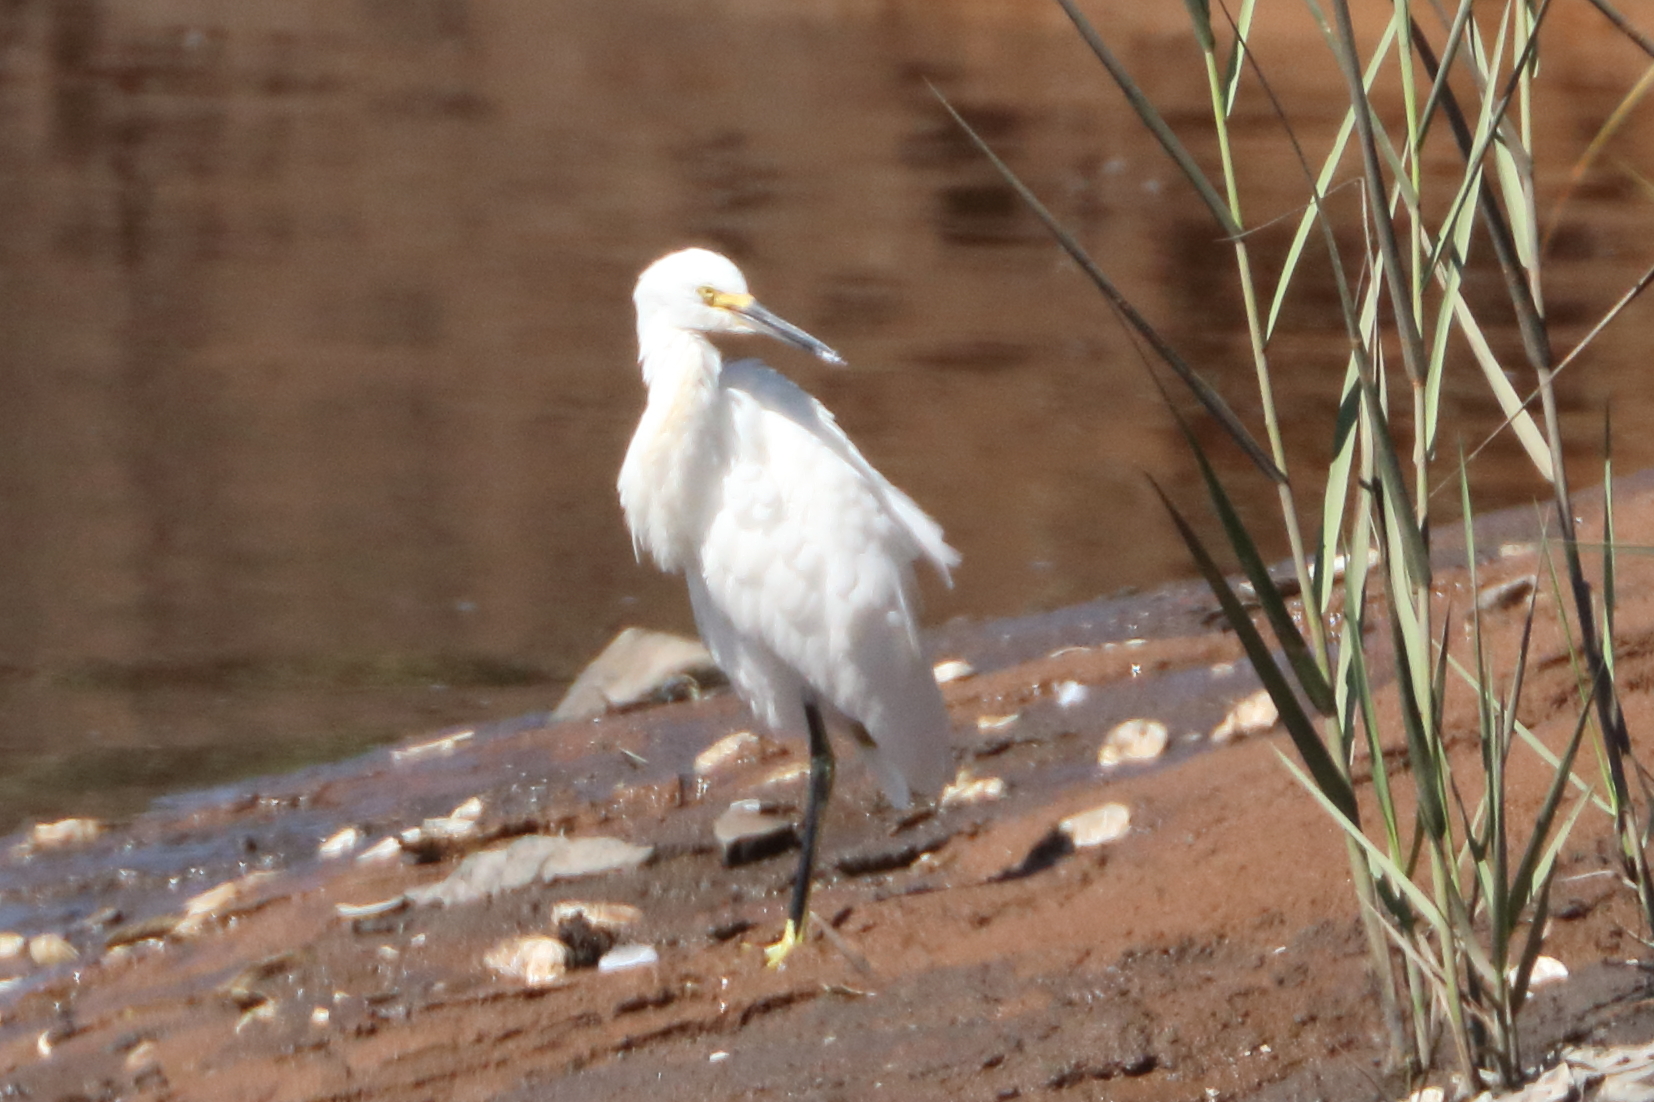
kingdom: Animalia
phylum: Chordata
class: Aves
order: Pelecaniformes
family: Ardeidae
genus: Egretta
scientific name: Egretta thula
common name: Snowy egret
